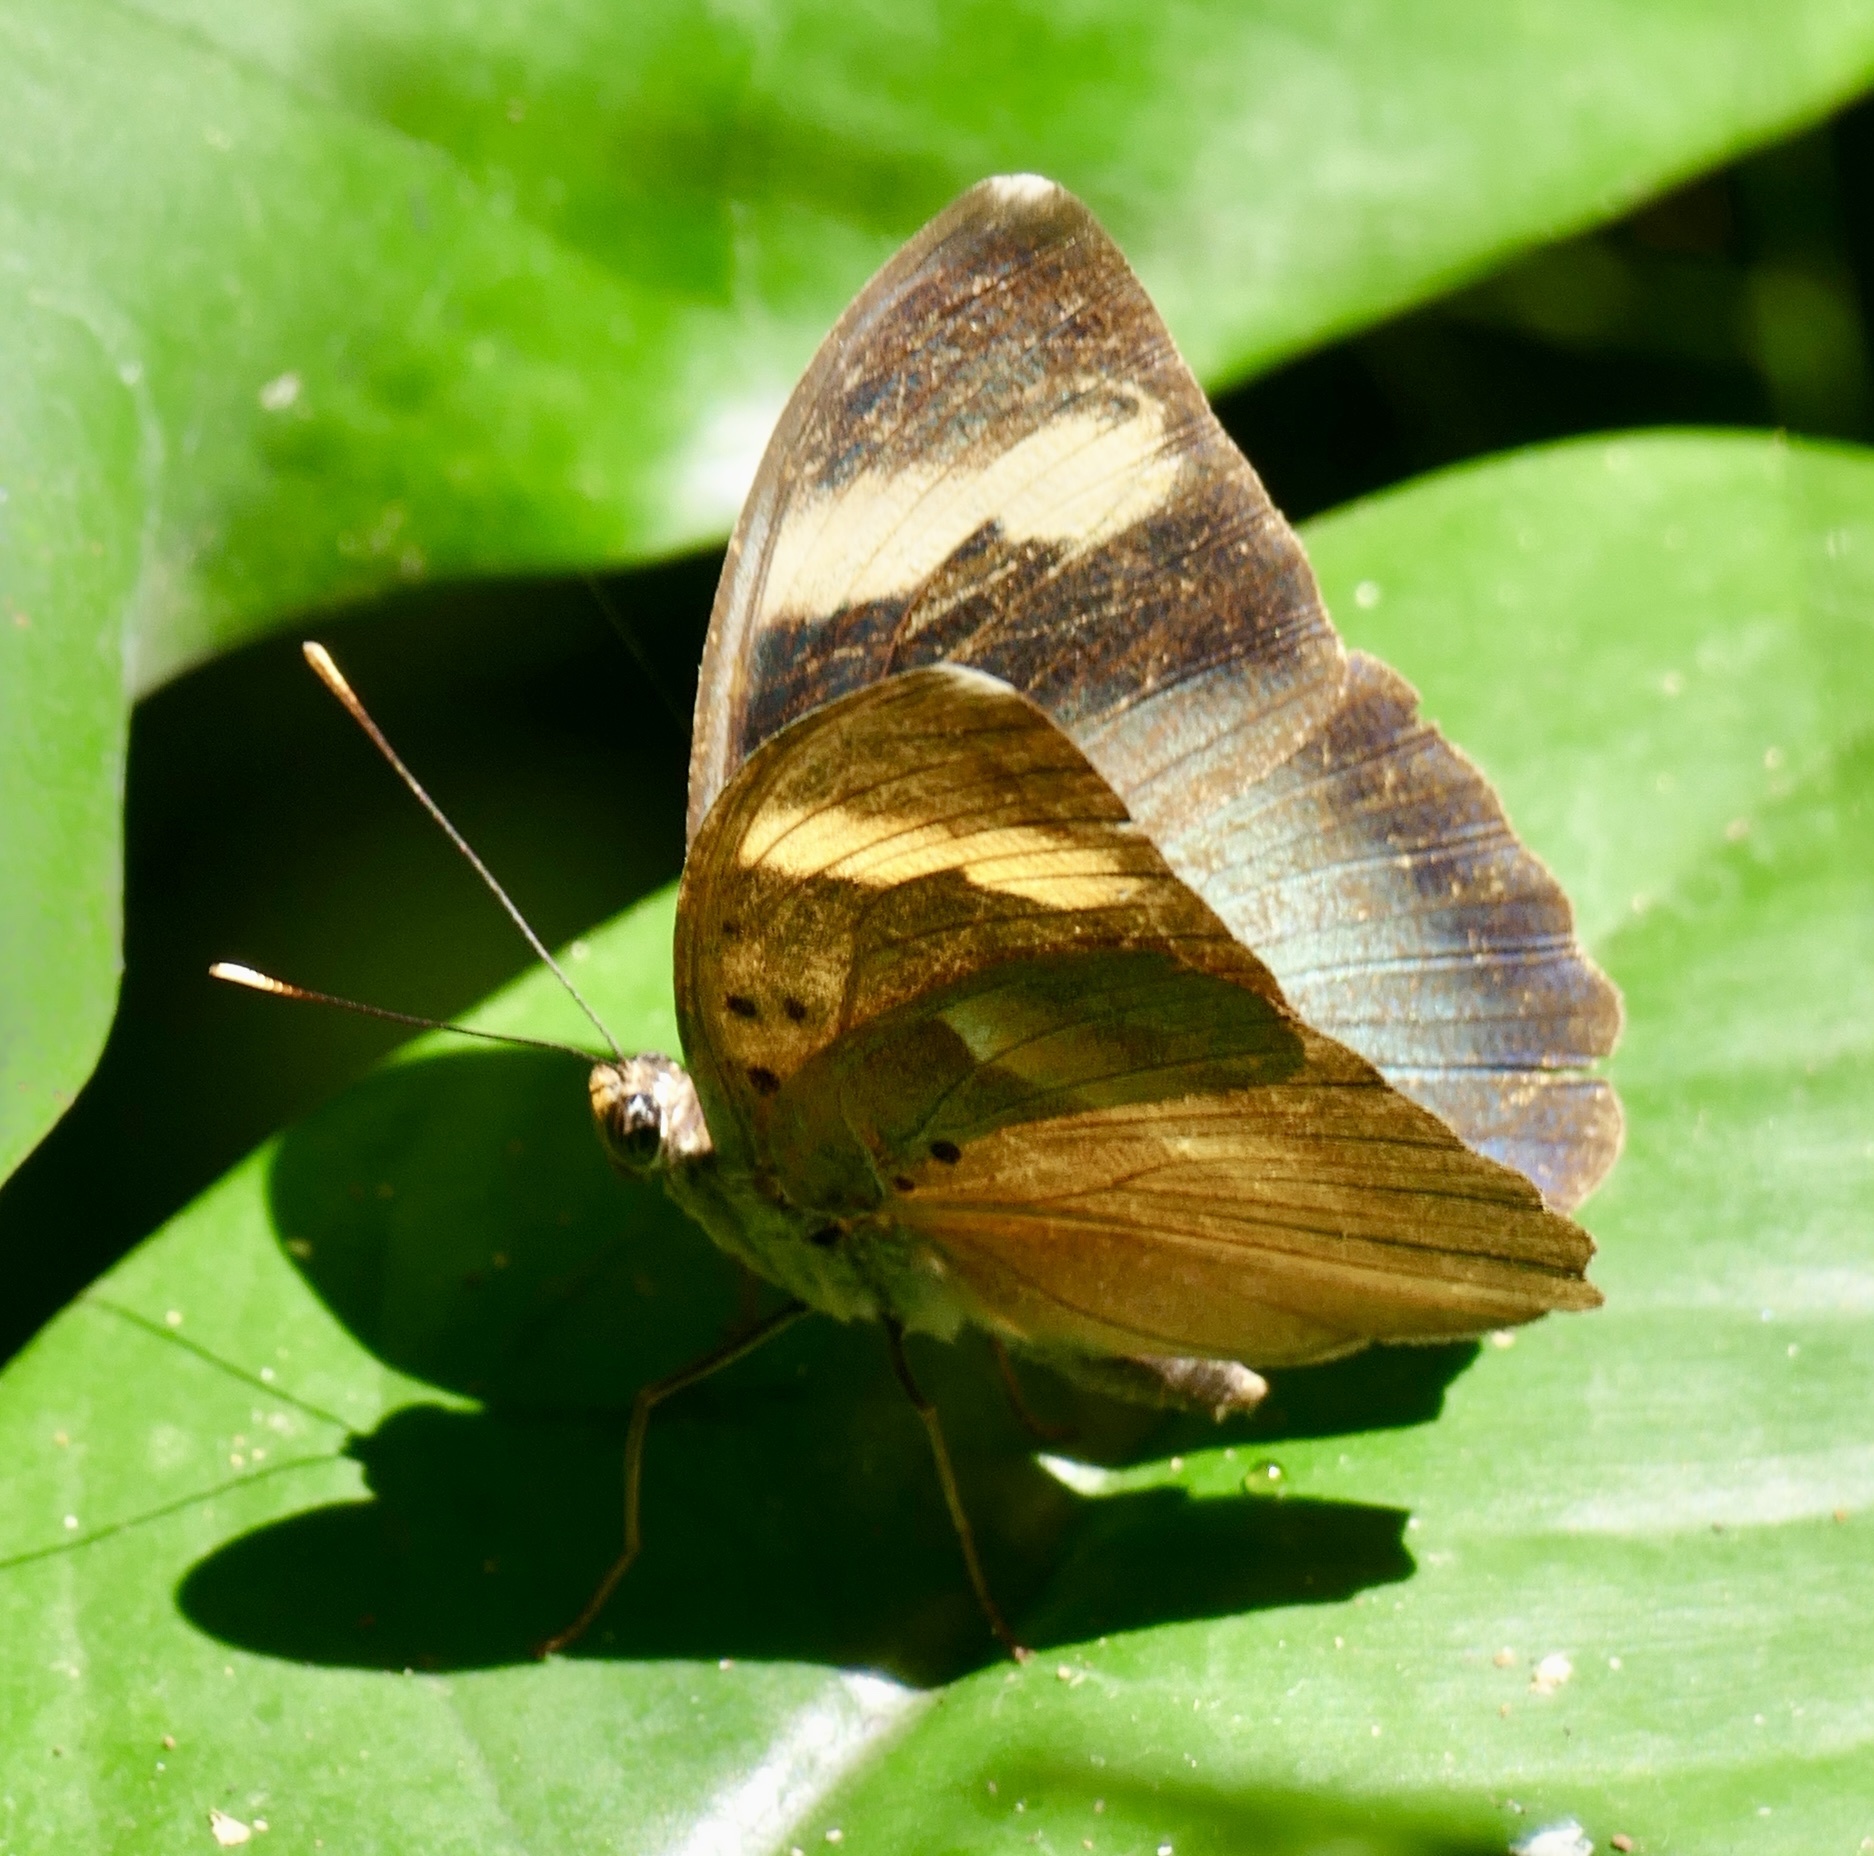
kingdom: Animalia
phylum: Arthropoda
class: Insecta
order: Lepidoptera
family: Nymphalidae
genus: Euphaedra
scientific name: Euphaedra medon
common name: Widespread forester
